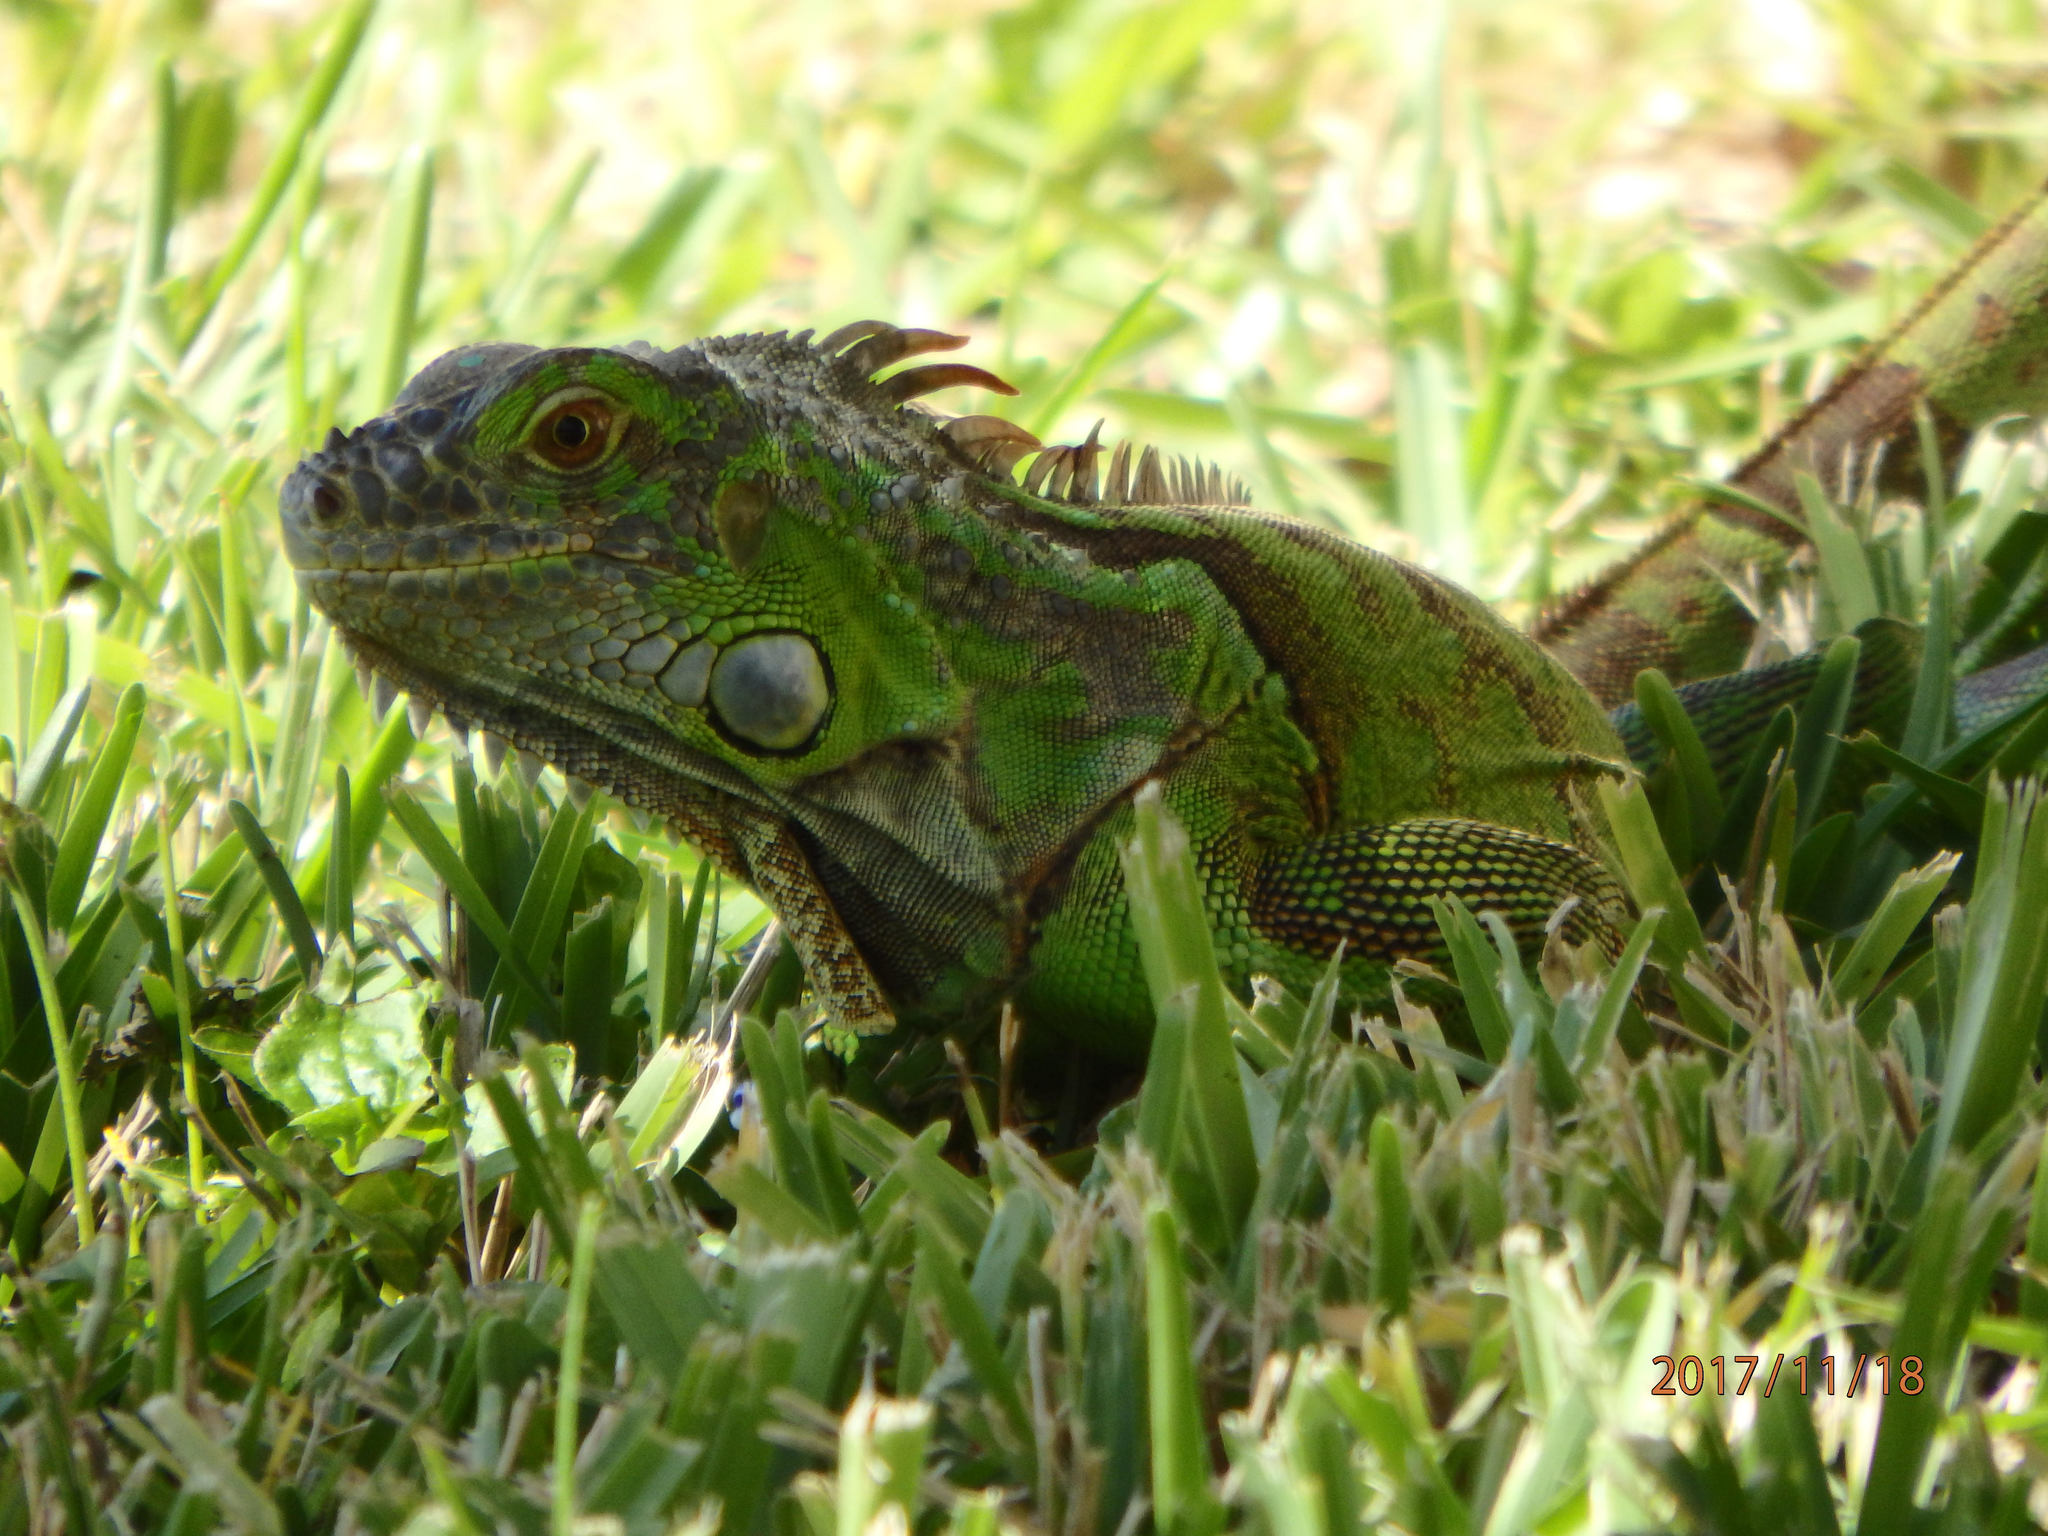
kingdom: Animalia
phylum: Chordata
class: Squamata
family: Iguanidae
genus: Iguana
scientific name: Iguana iguana
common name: Green iguana
